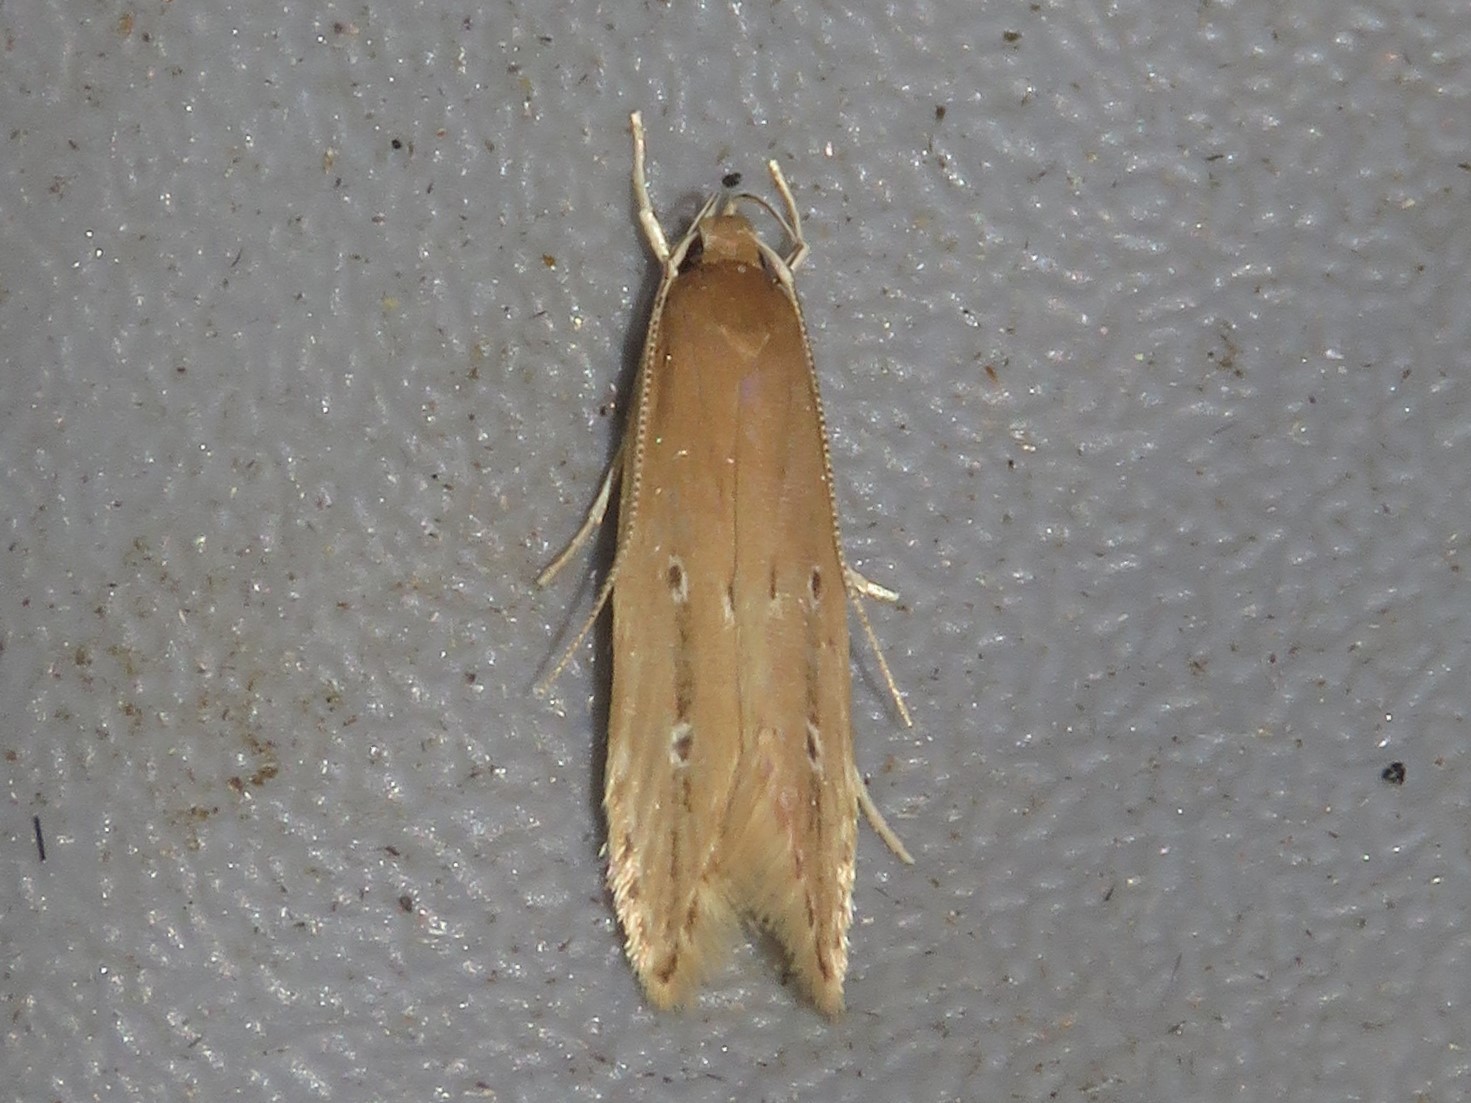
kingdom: Animalia
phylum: Arthropoda
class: Insecta
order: Lepidoptera
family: Cosmopterigidae
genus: Limnaecia
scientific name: Limnaecia phragmitella
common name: Bulrush cosmet
